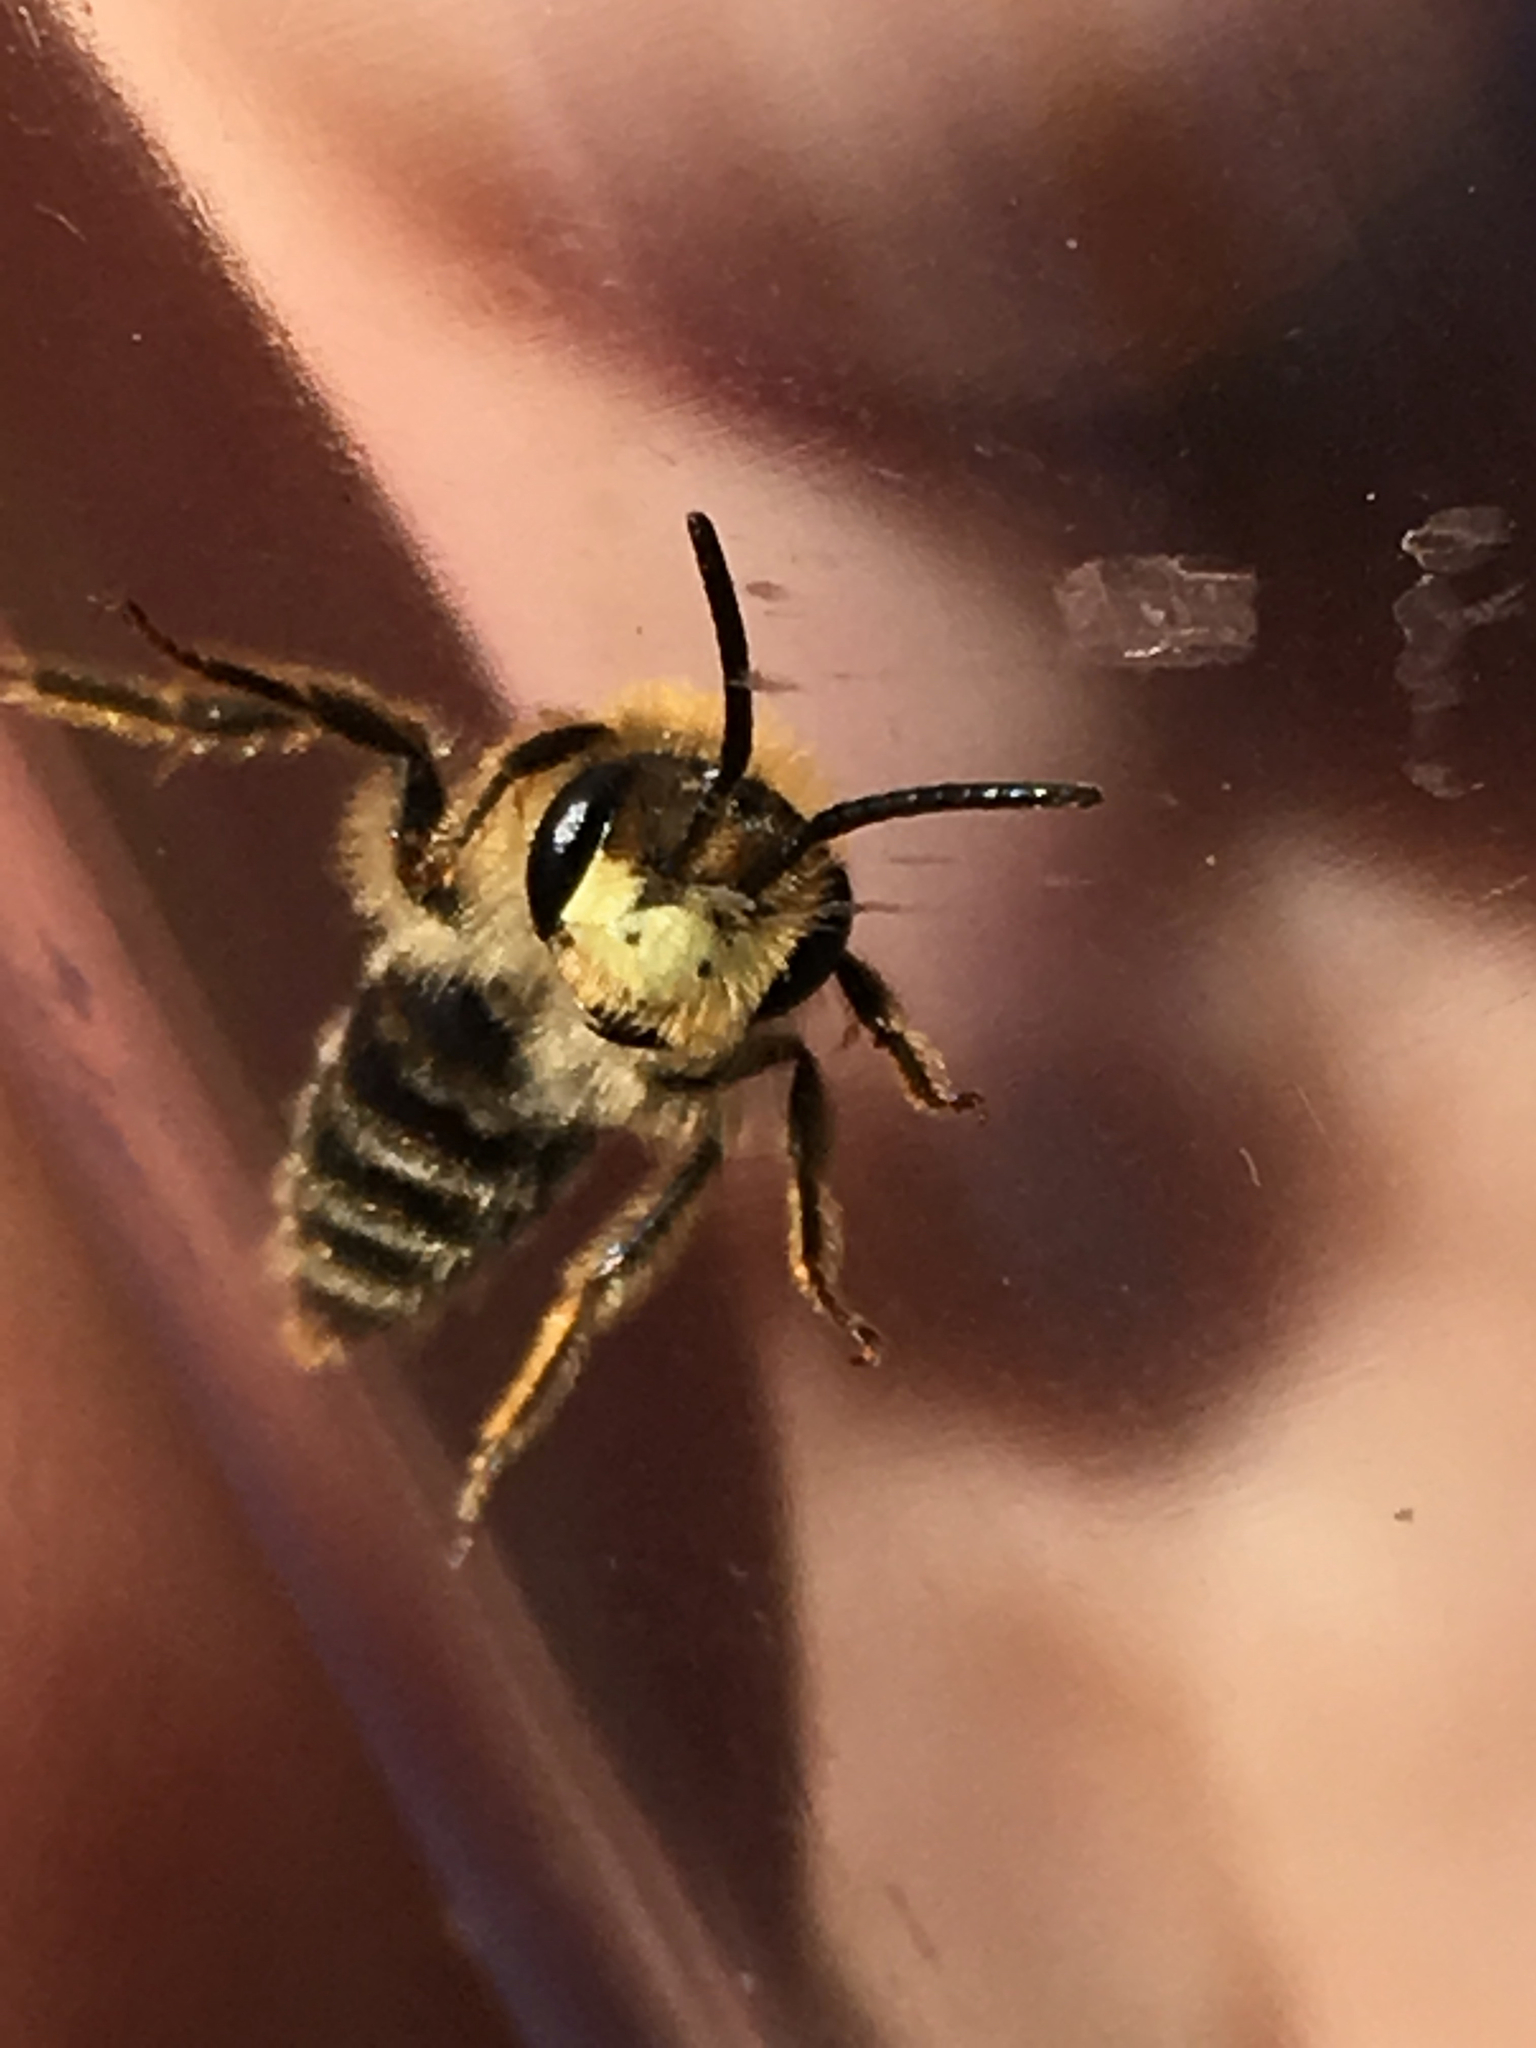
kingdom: Animalia
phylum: Arthropoda
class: Insecta
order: Hymenoptera
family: Andrenidae
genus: Andrena
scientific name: Andrena cressonii
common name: Cresson's mining bee
